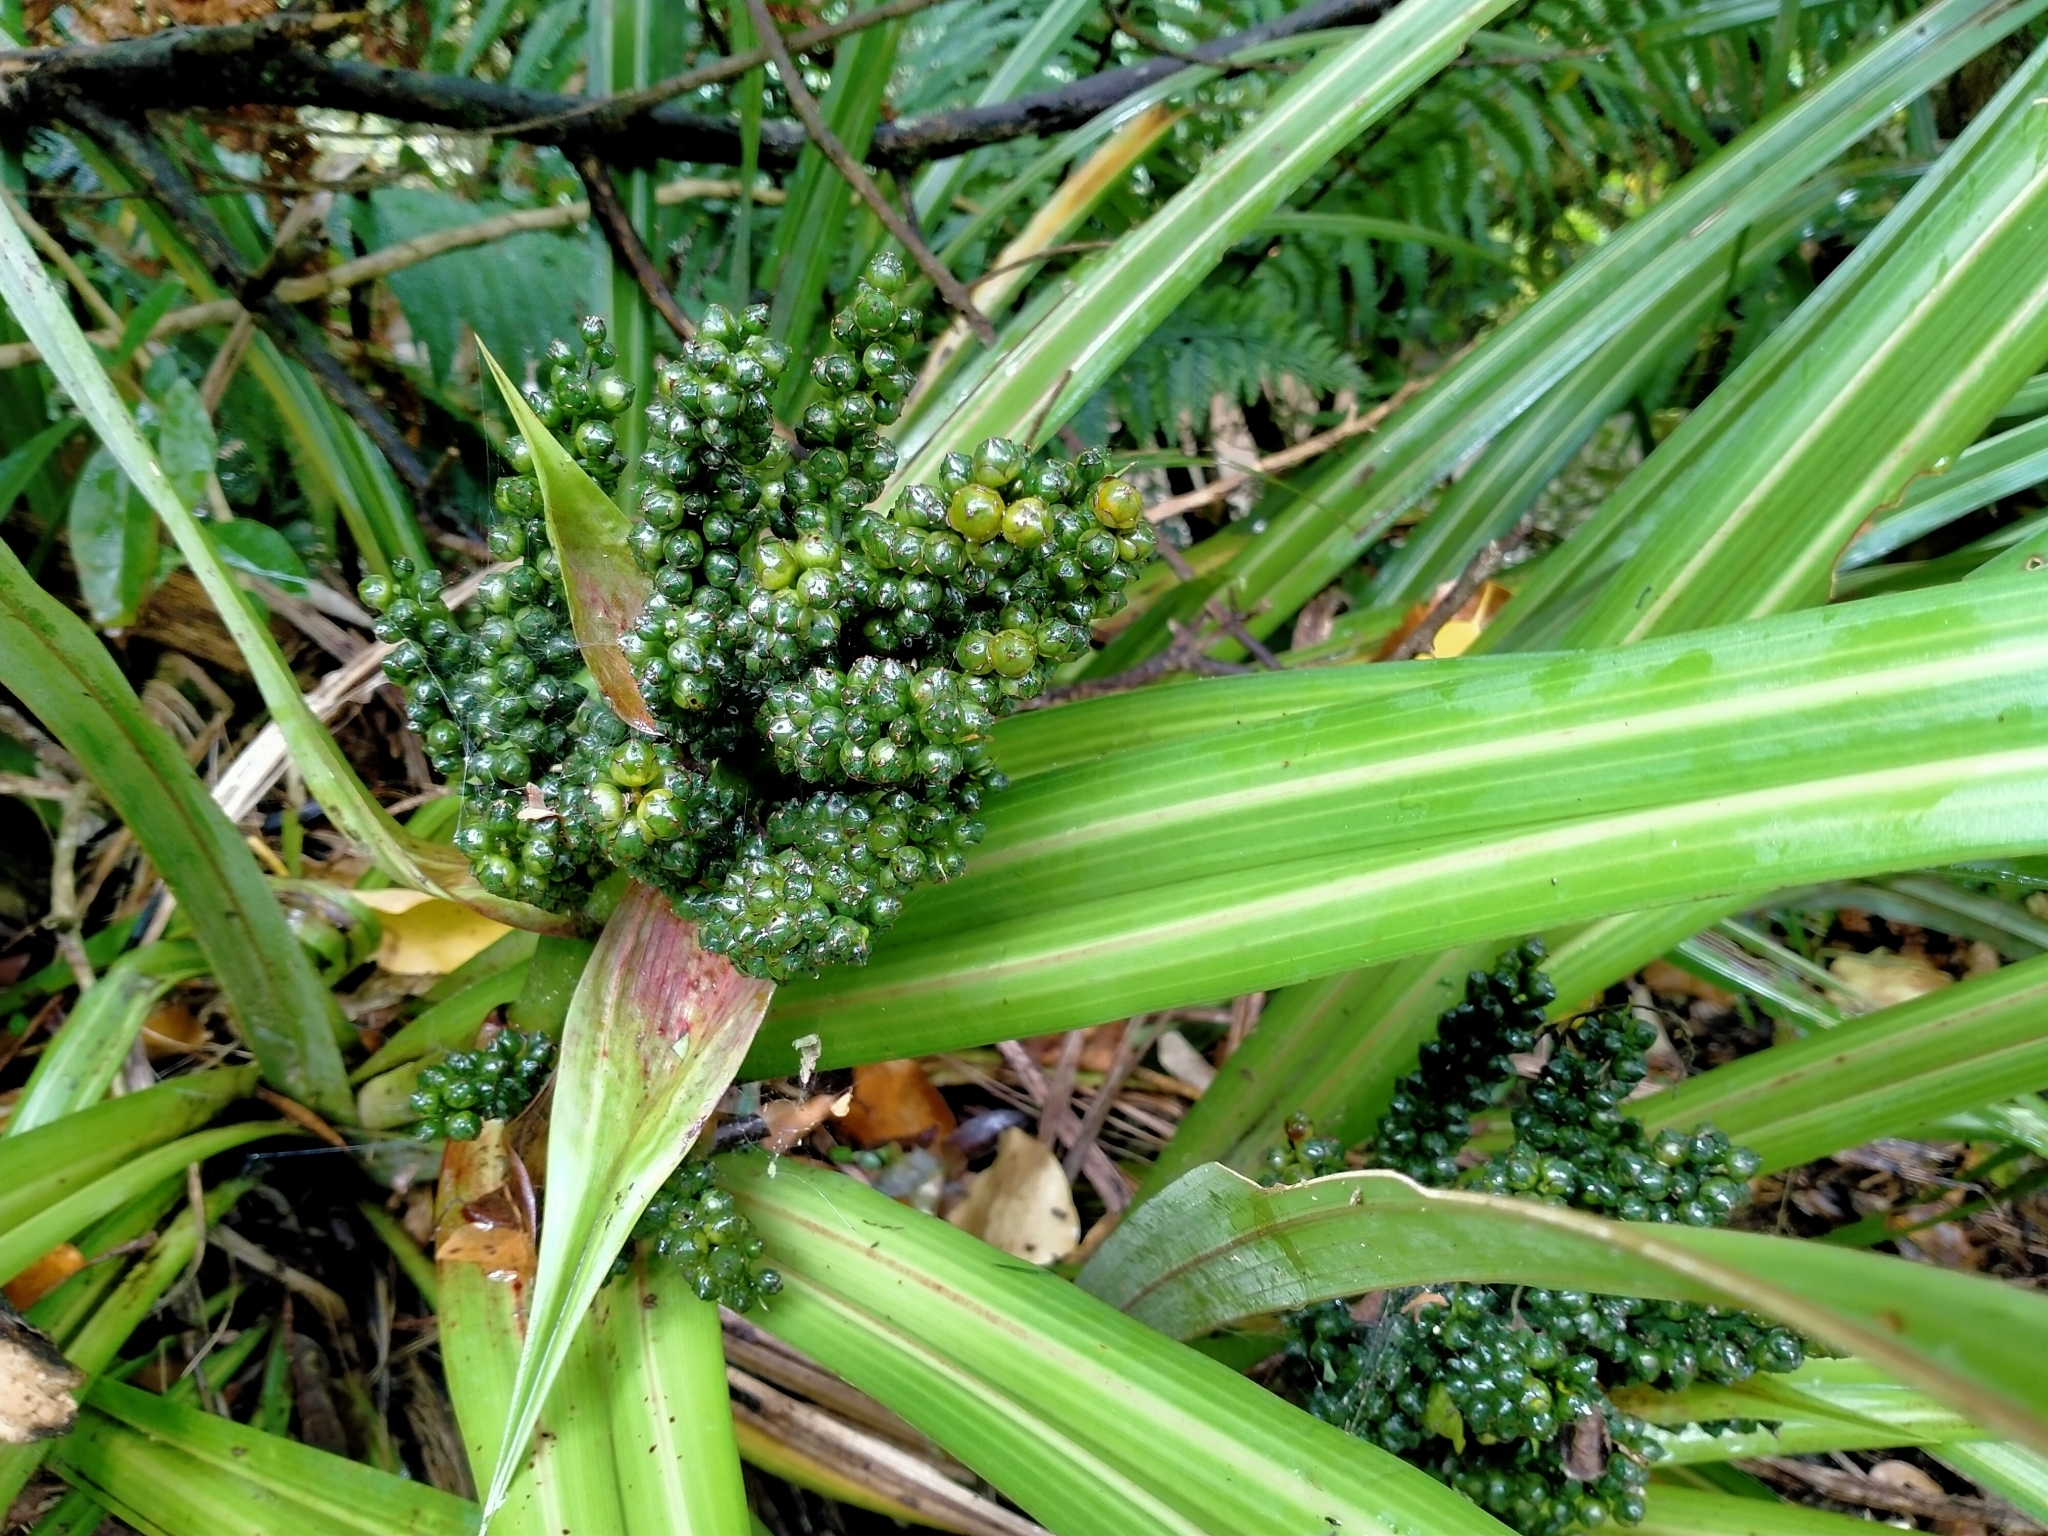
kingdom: Plantae
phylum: Tracheophyta
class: Liliopsida
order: Asparagales
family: Asteliaceae
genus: Astelia
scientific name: Astelia fragrans
